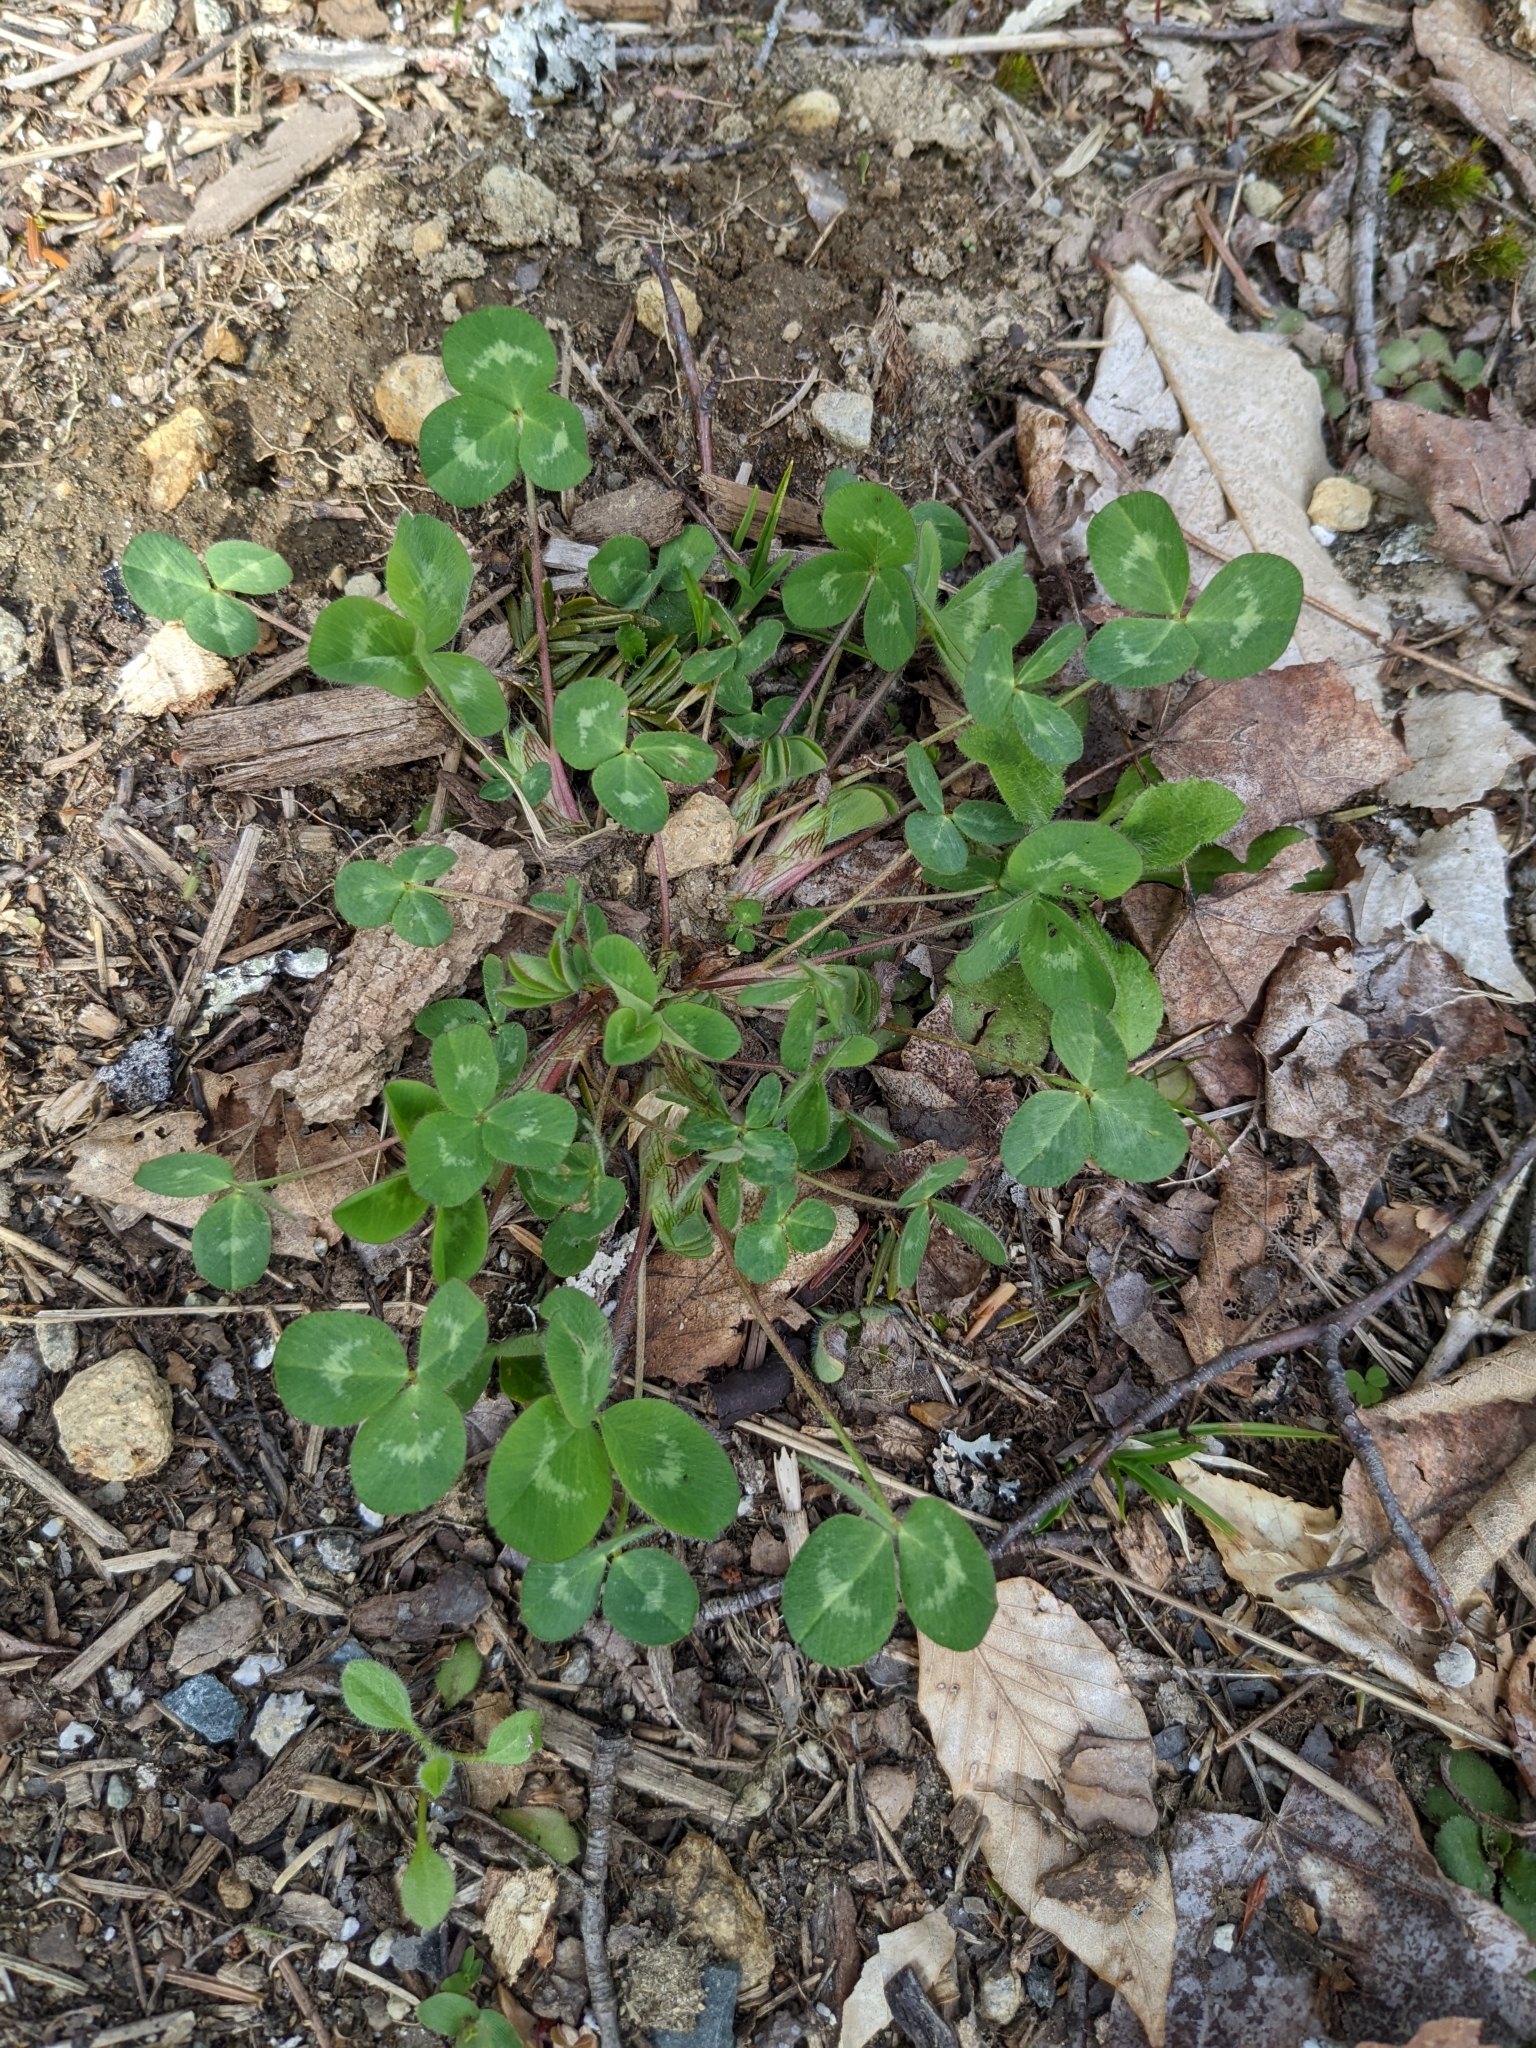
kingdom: Plantae
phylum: Tracheophyta
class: Magnoliopsida
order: Fabales
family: Fabaceae
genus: Trifolium
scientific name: Trifolium pratense
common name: Red clover
